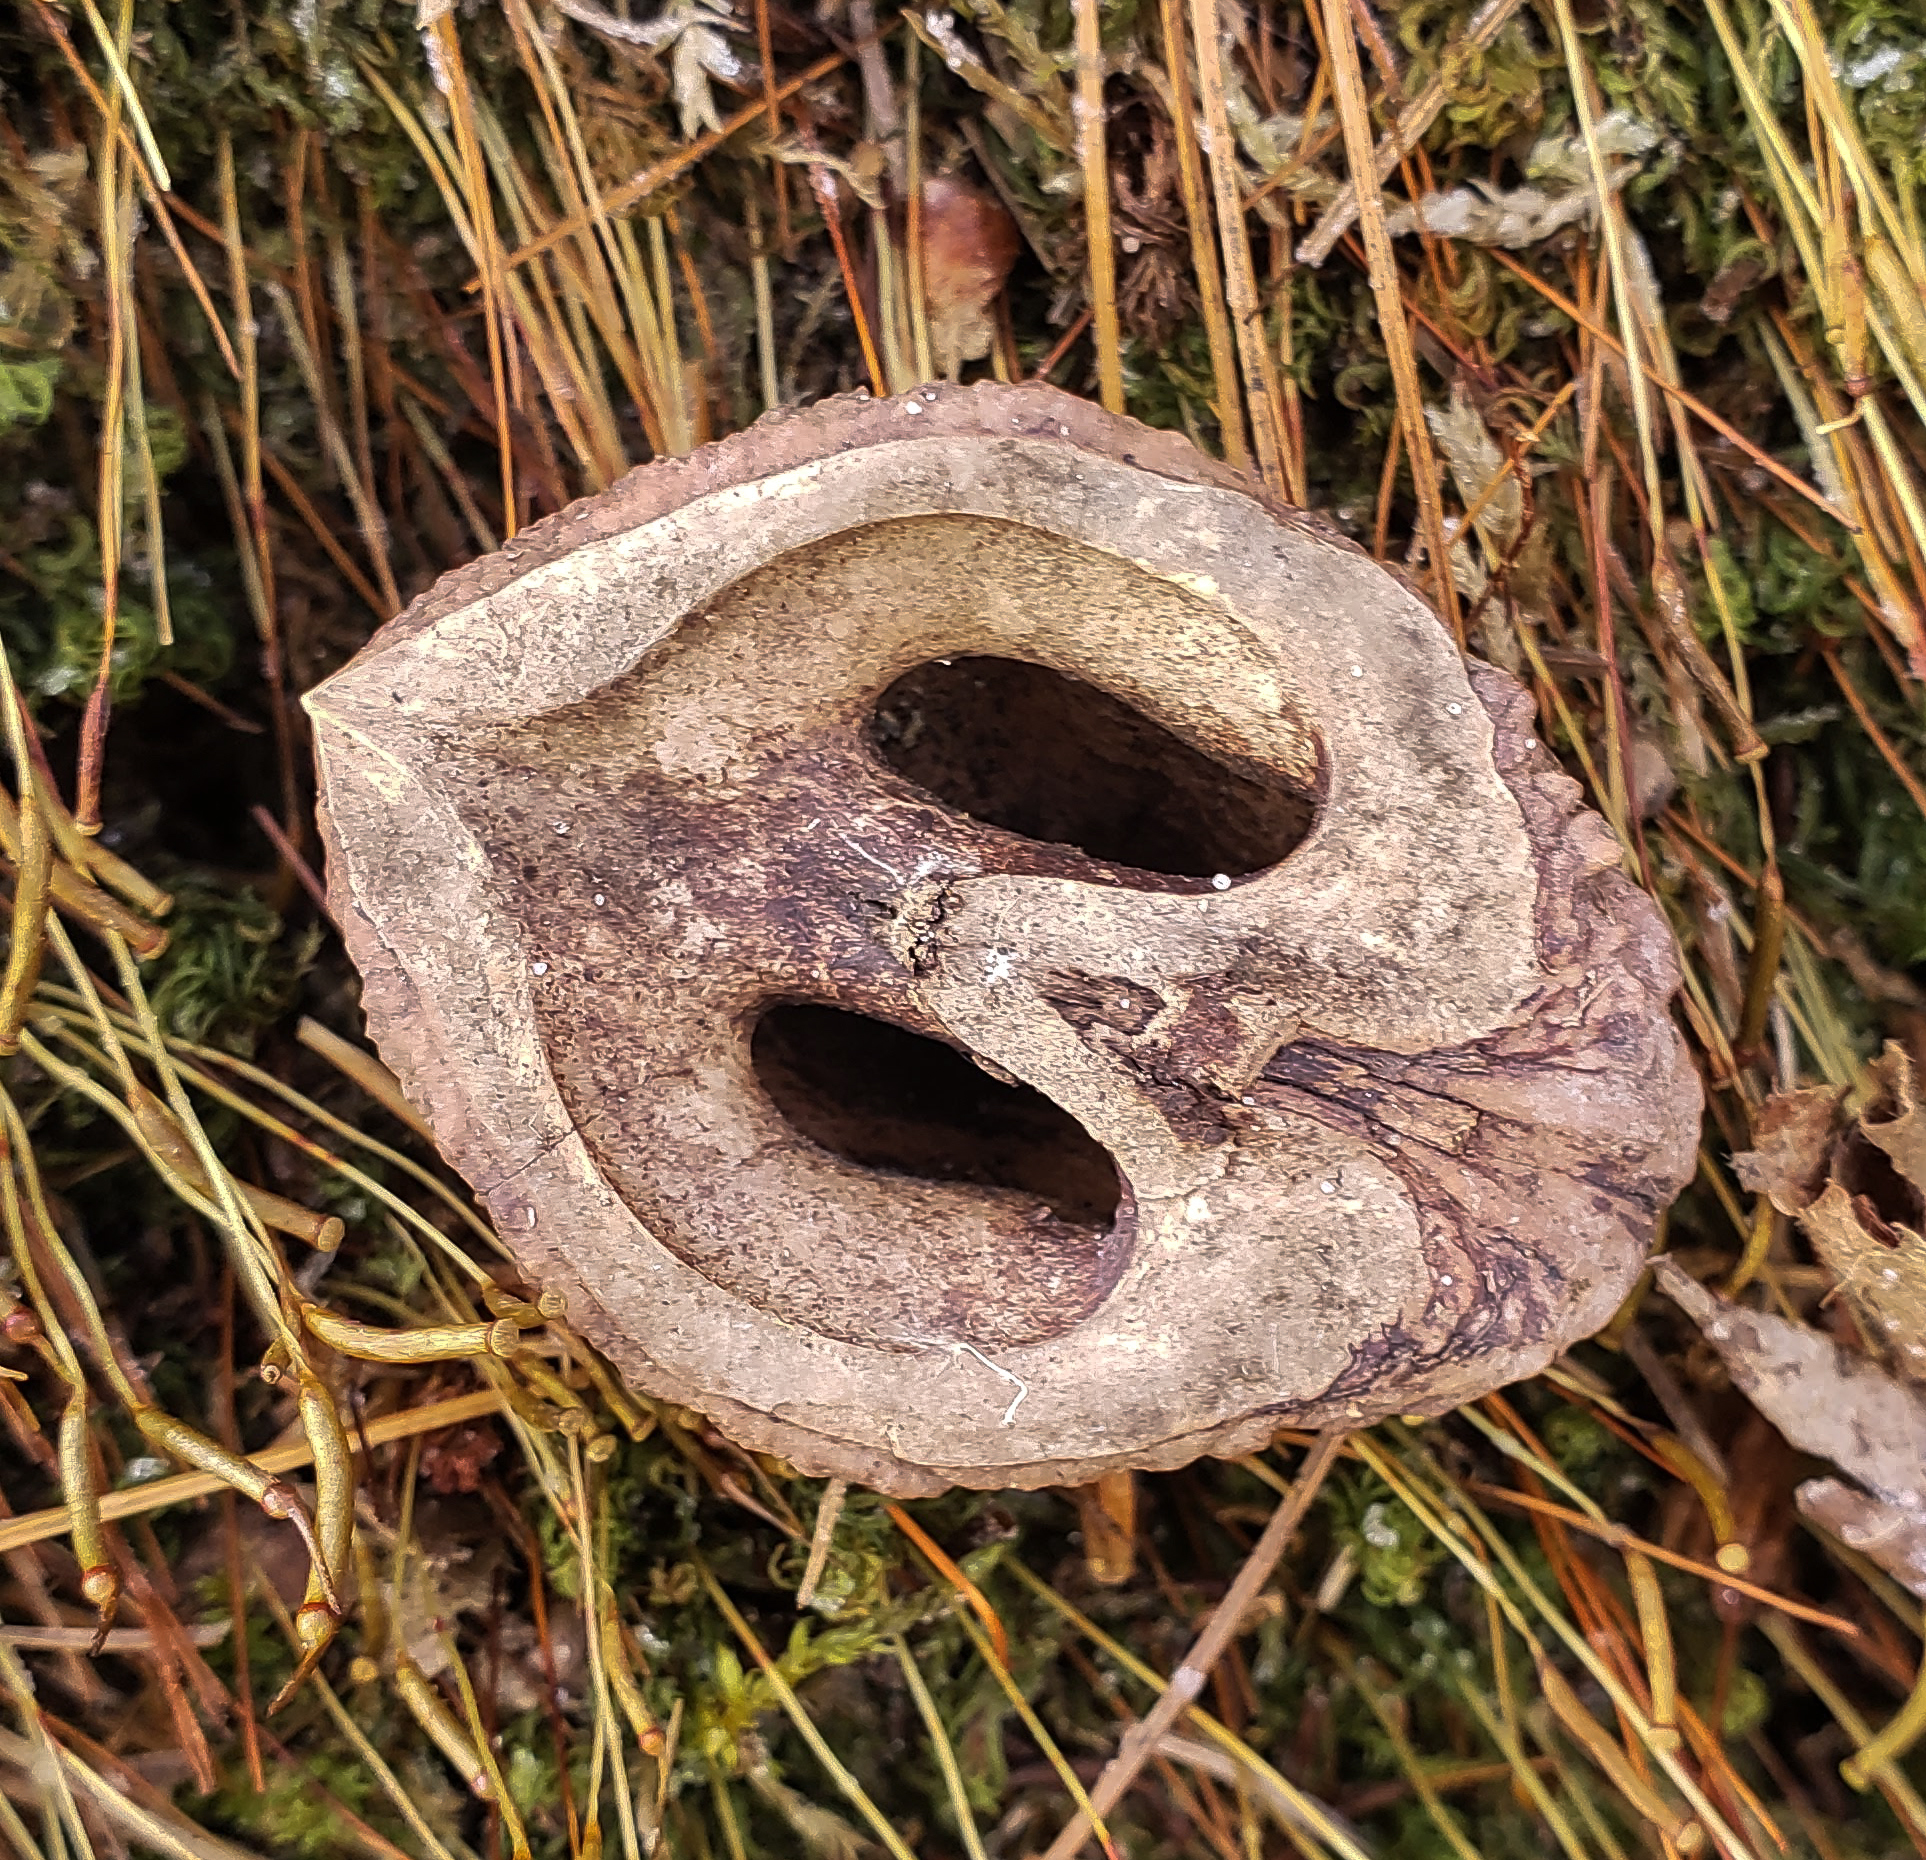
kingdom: Plantae
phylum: Tracheophyta
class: Magnoliopsida
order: Fagales
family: Juglandaceae
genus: Juglans
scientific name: Juglans nigra
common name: Black walnut
